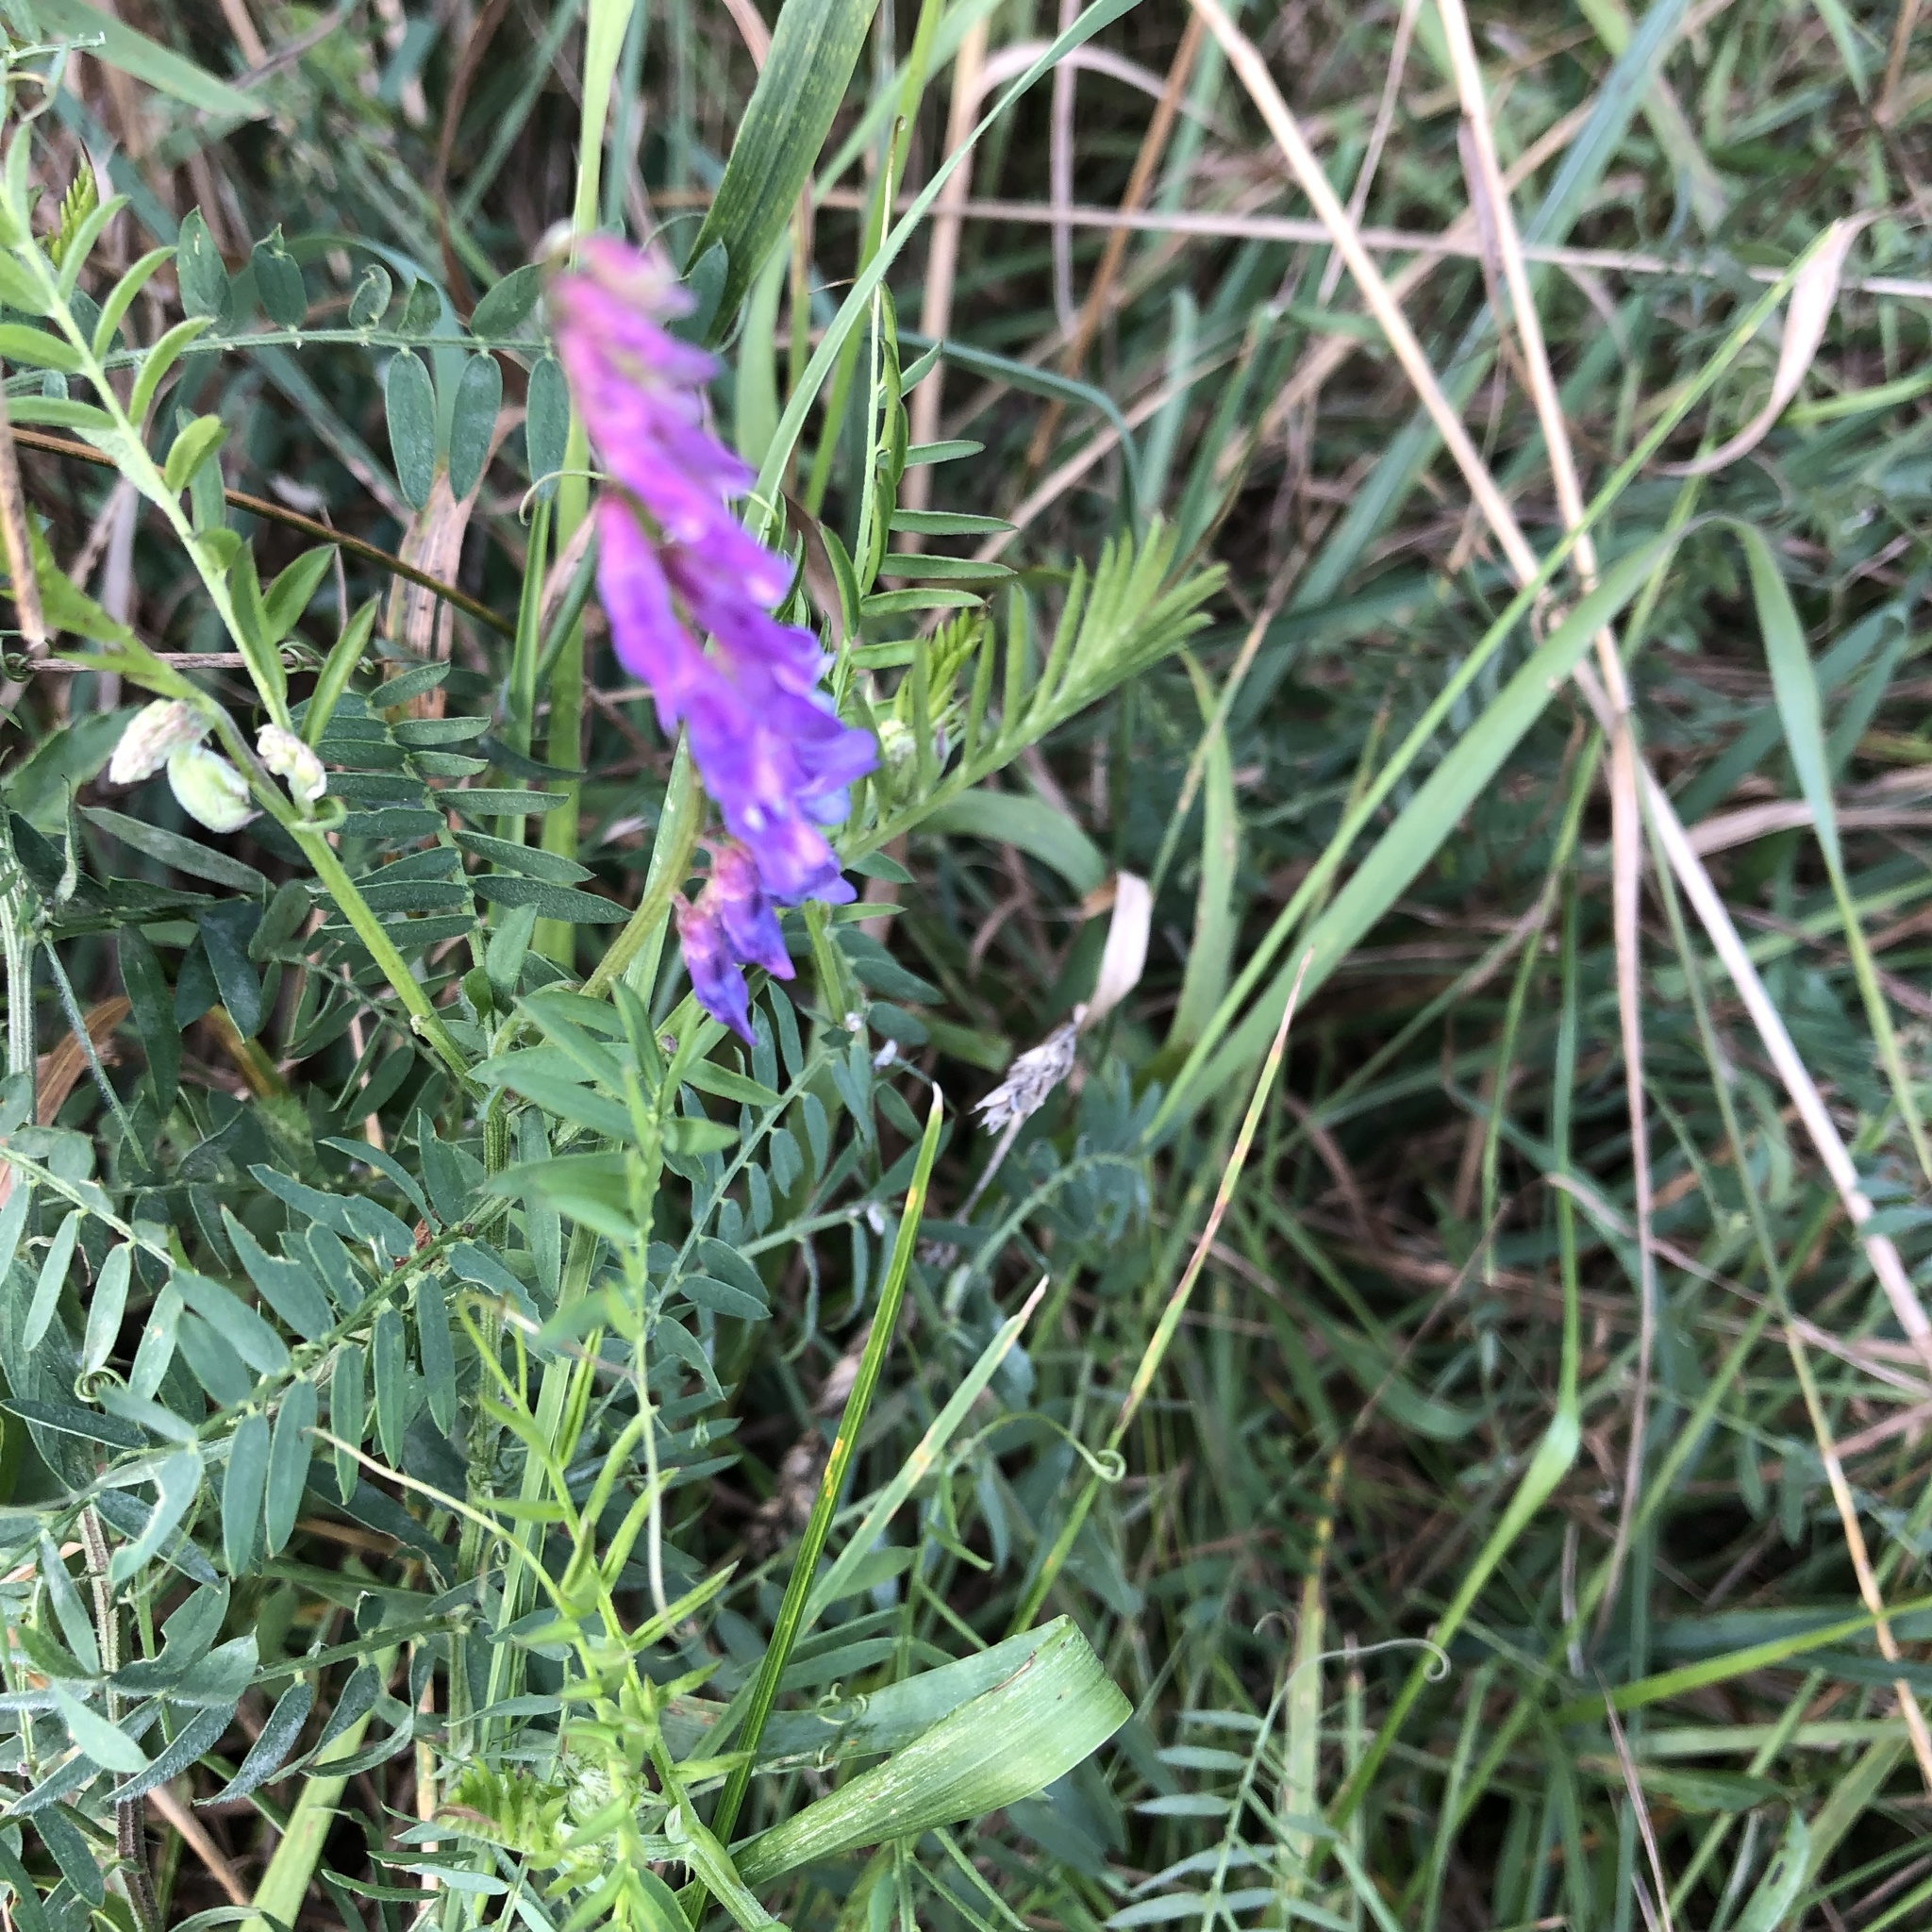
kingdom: Plantae
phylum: Tracheophyta
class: Magnoliopsida
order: Fabales
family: Fabaceae
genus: Vicia
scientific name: Vicia cracca
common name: Bird vetch
